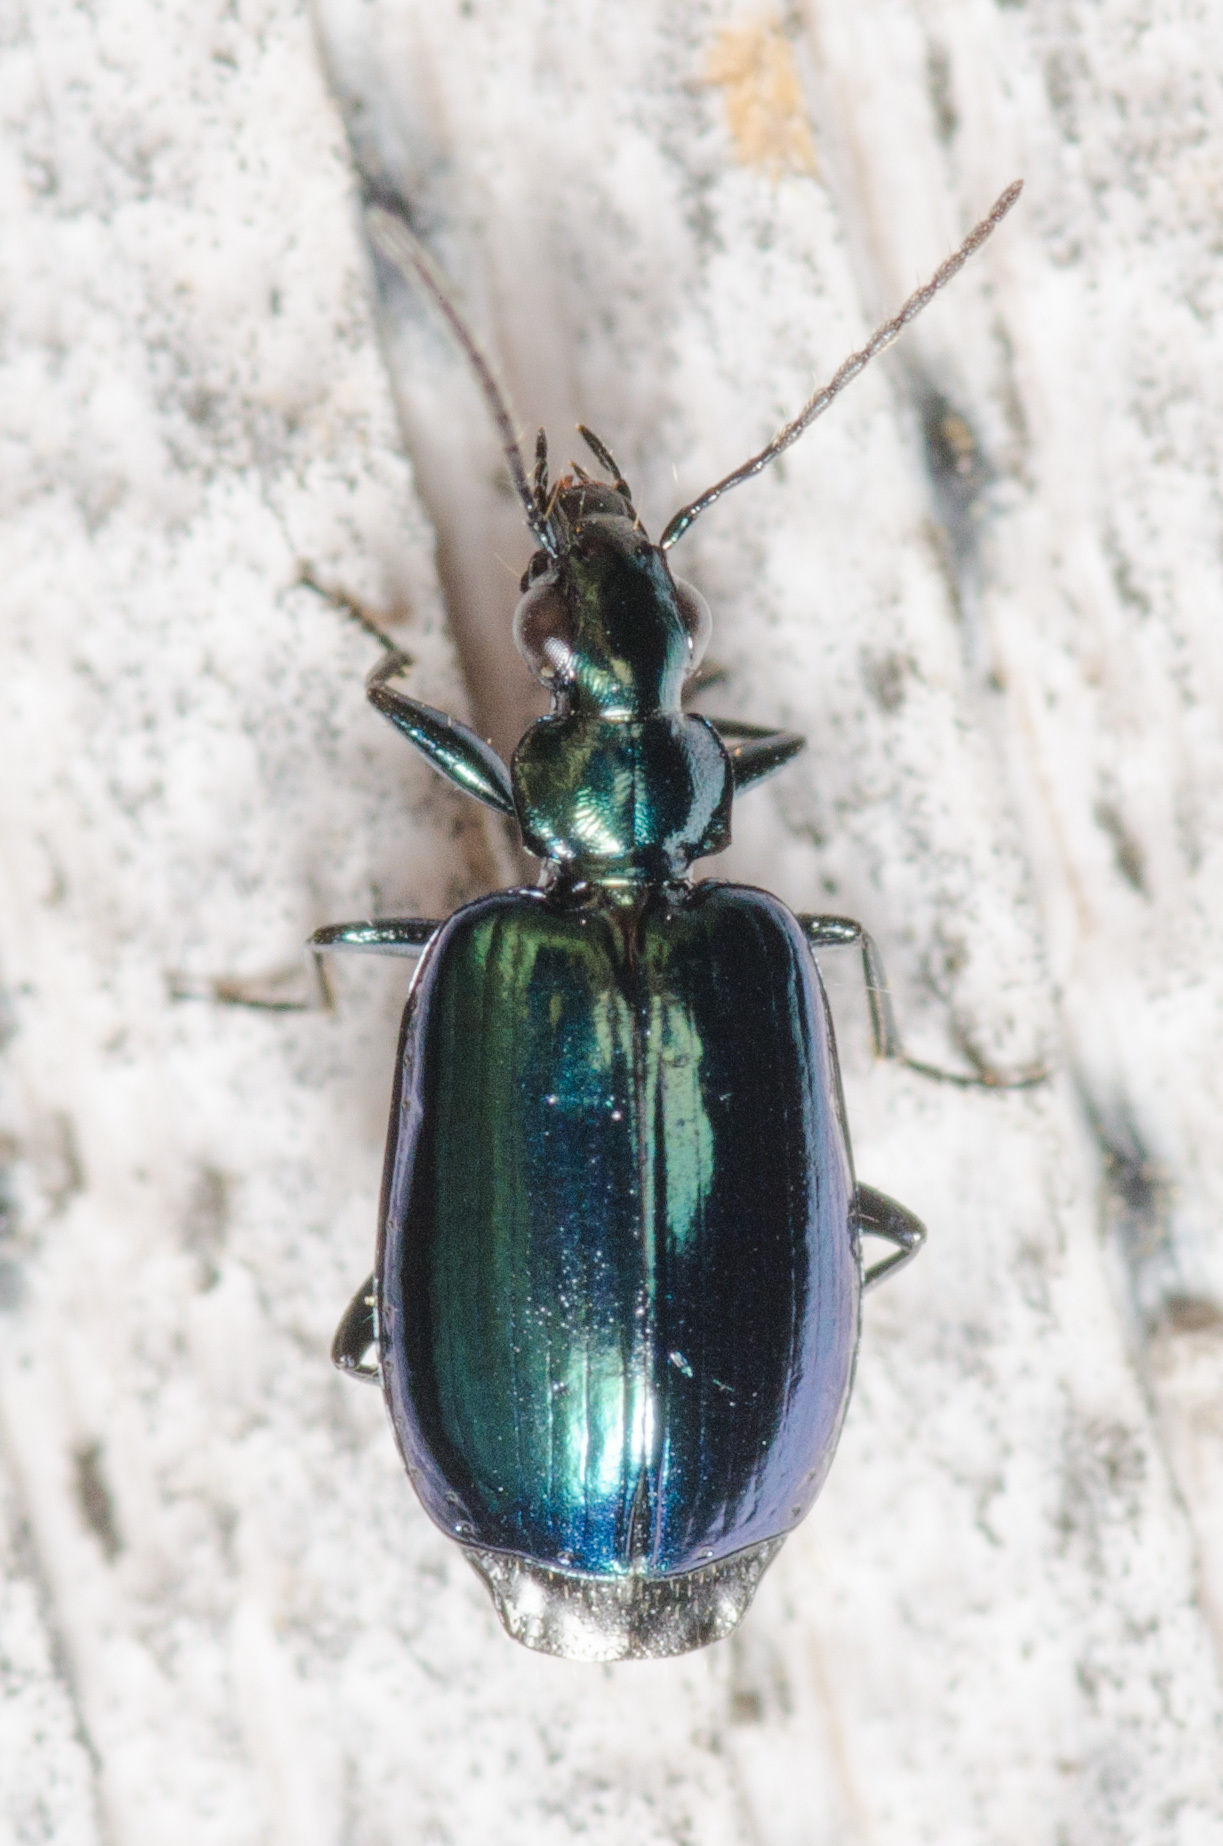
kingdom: Animalia
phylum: Arthropoda
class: Insecta
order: Coleoptera
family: Carabidae
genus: Lebia
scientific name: Lebia viridis
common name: Flower lebia beetle
